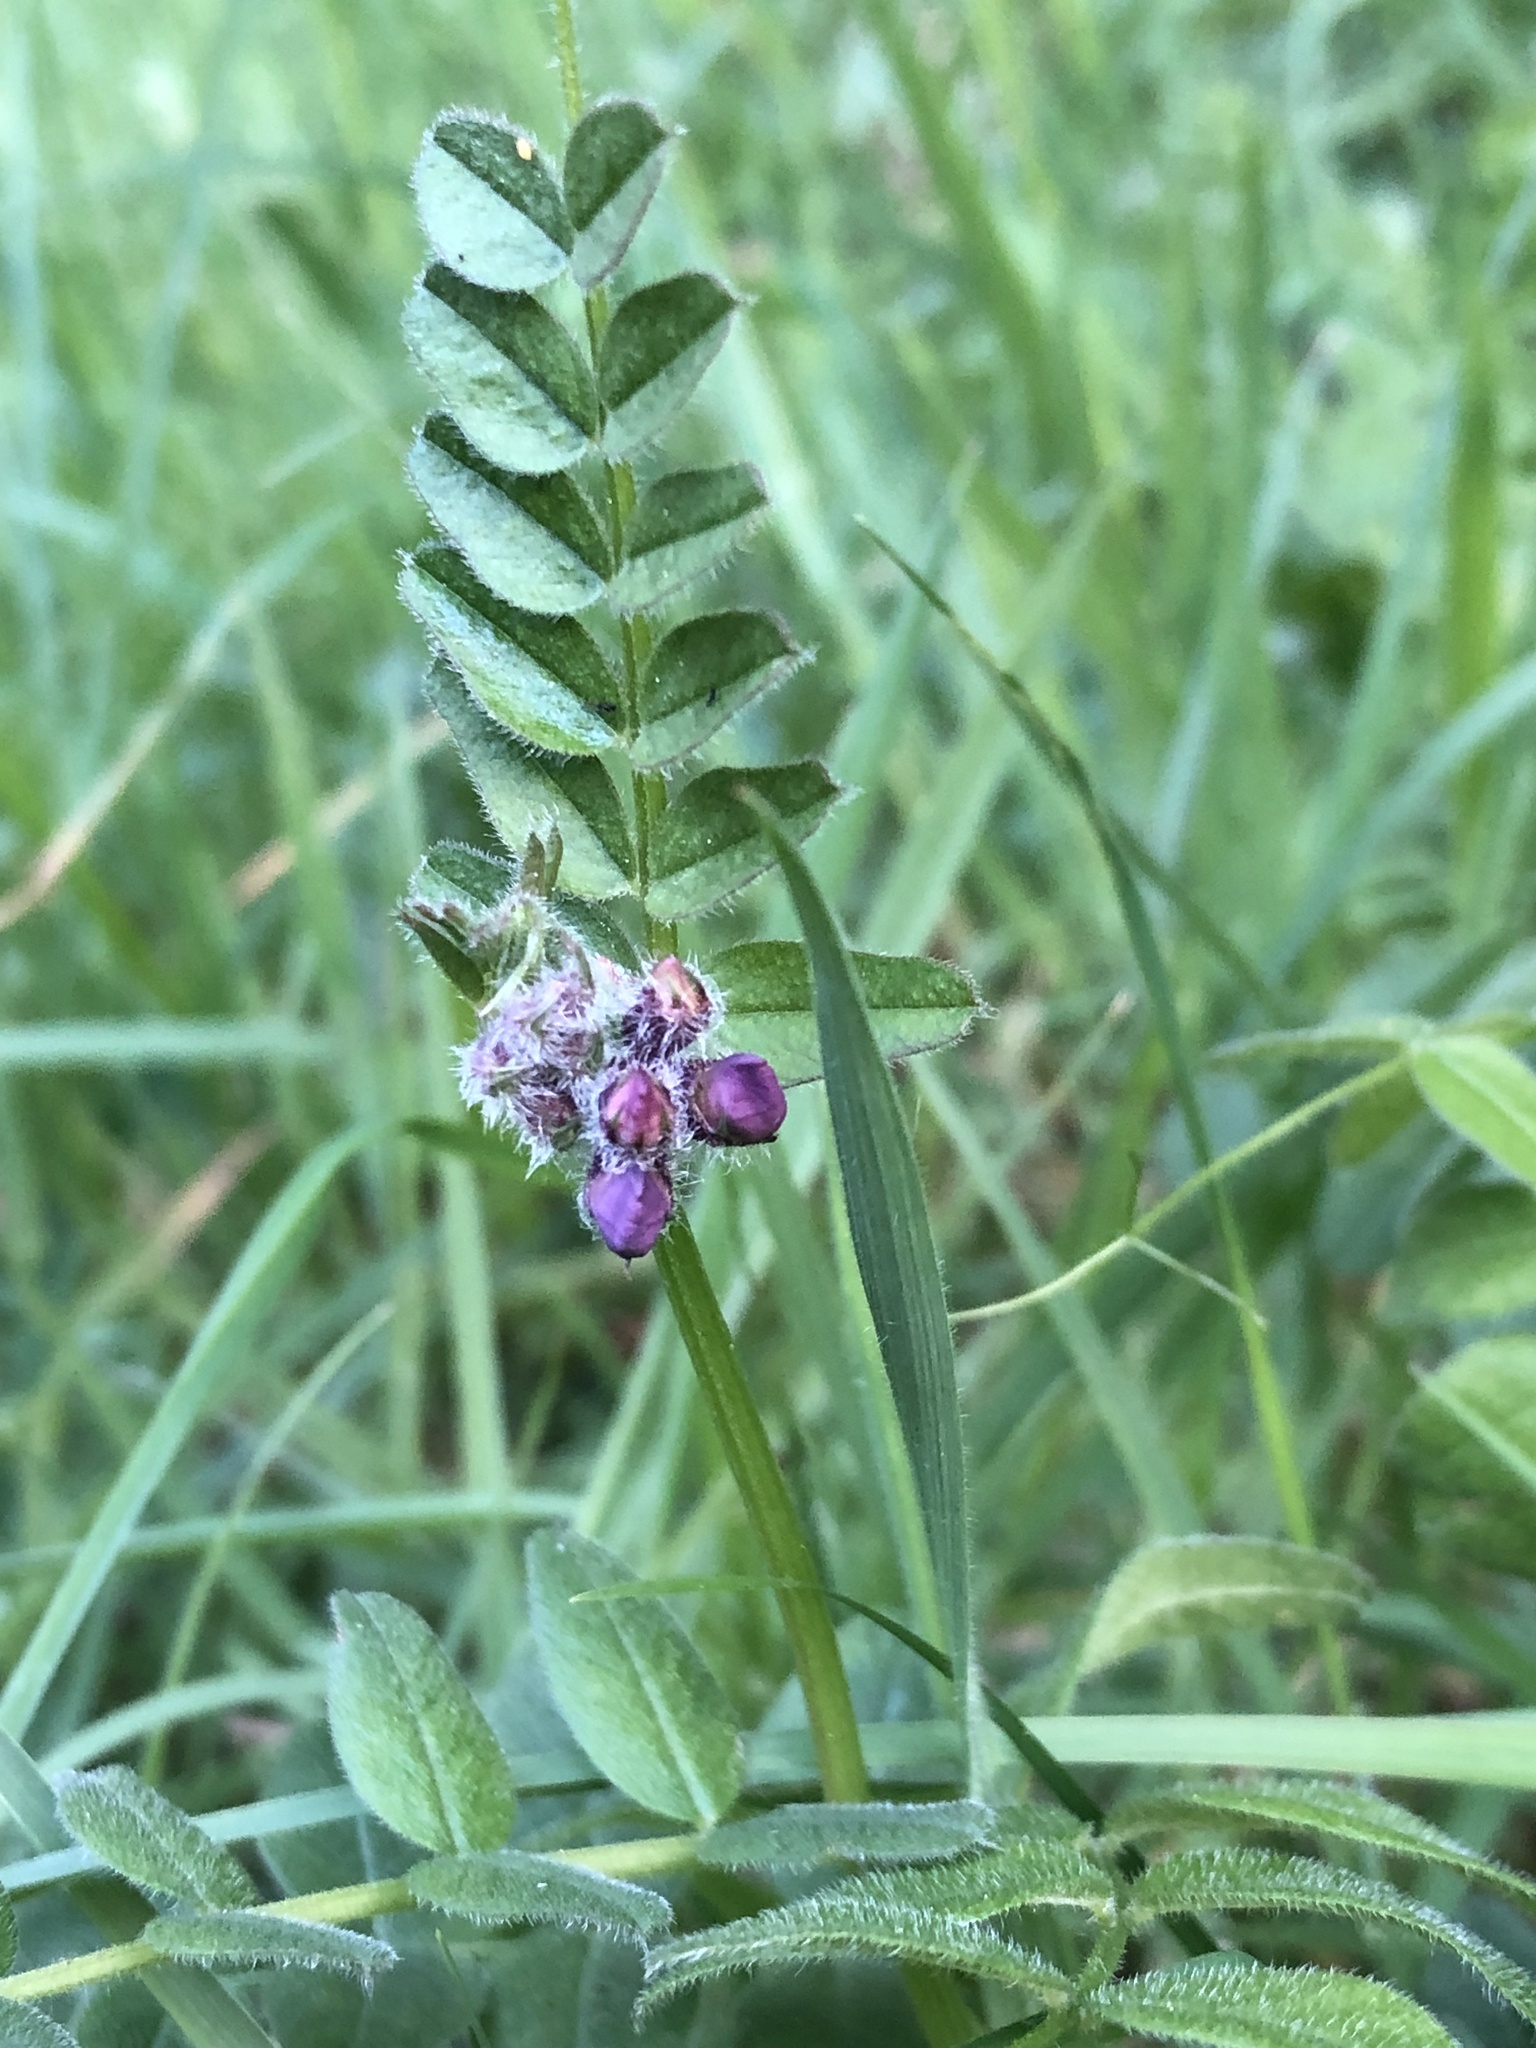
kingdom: Plantae
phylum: Tracheophyta
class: Magnoliopsida
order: Fabales
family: Fabaceae
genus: Vicia
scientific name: Vicia sepium
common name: Bush vetch
